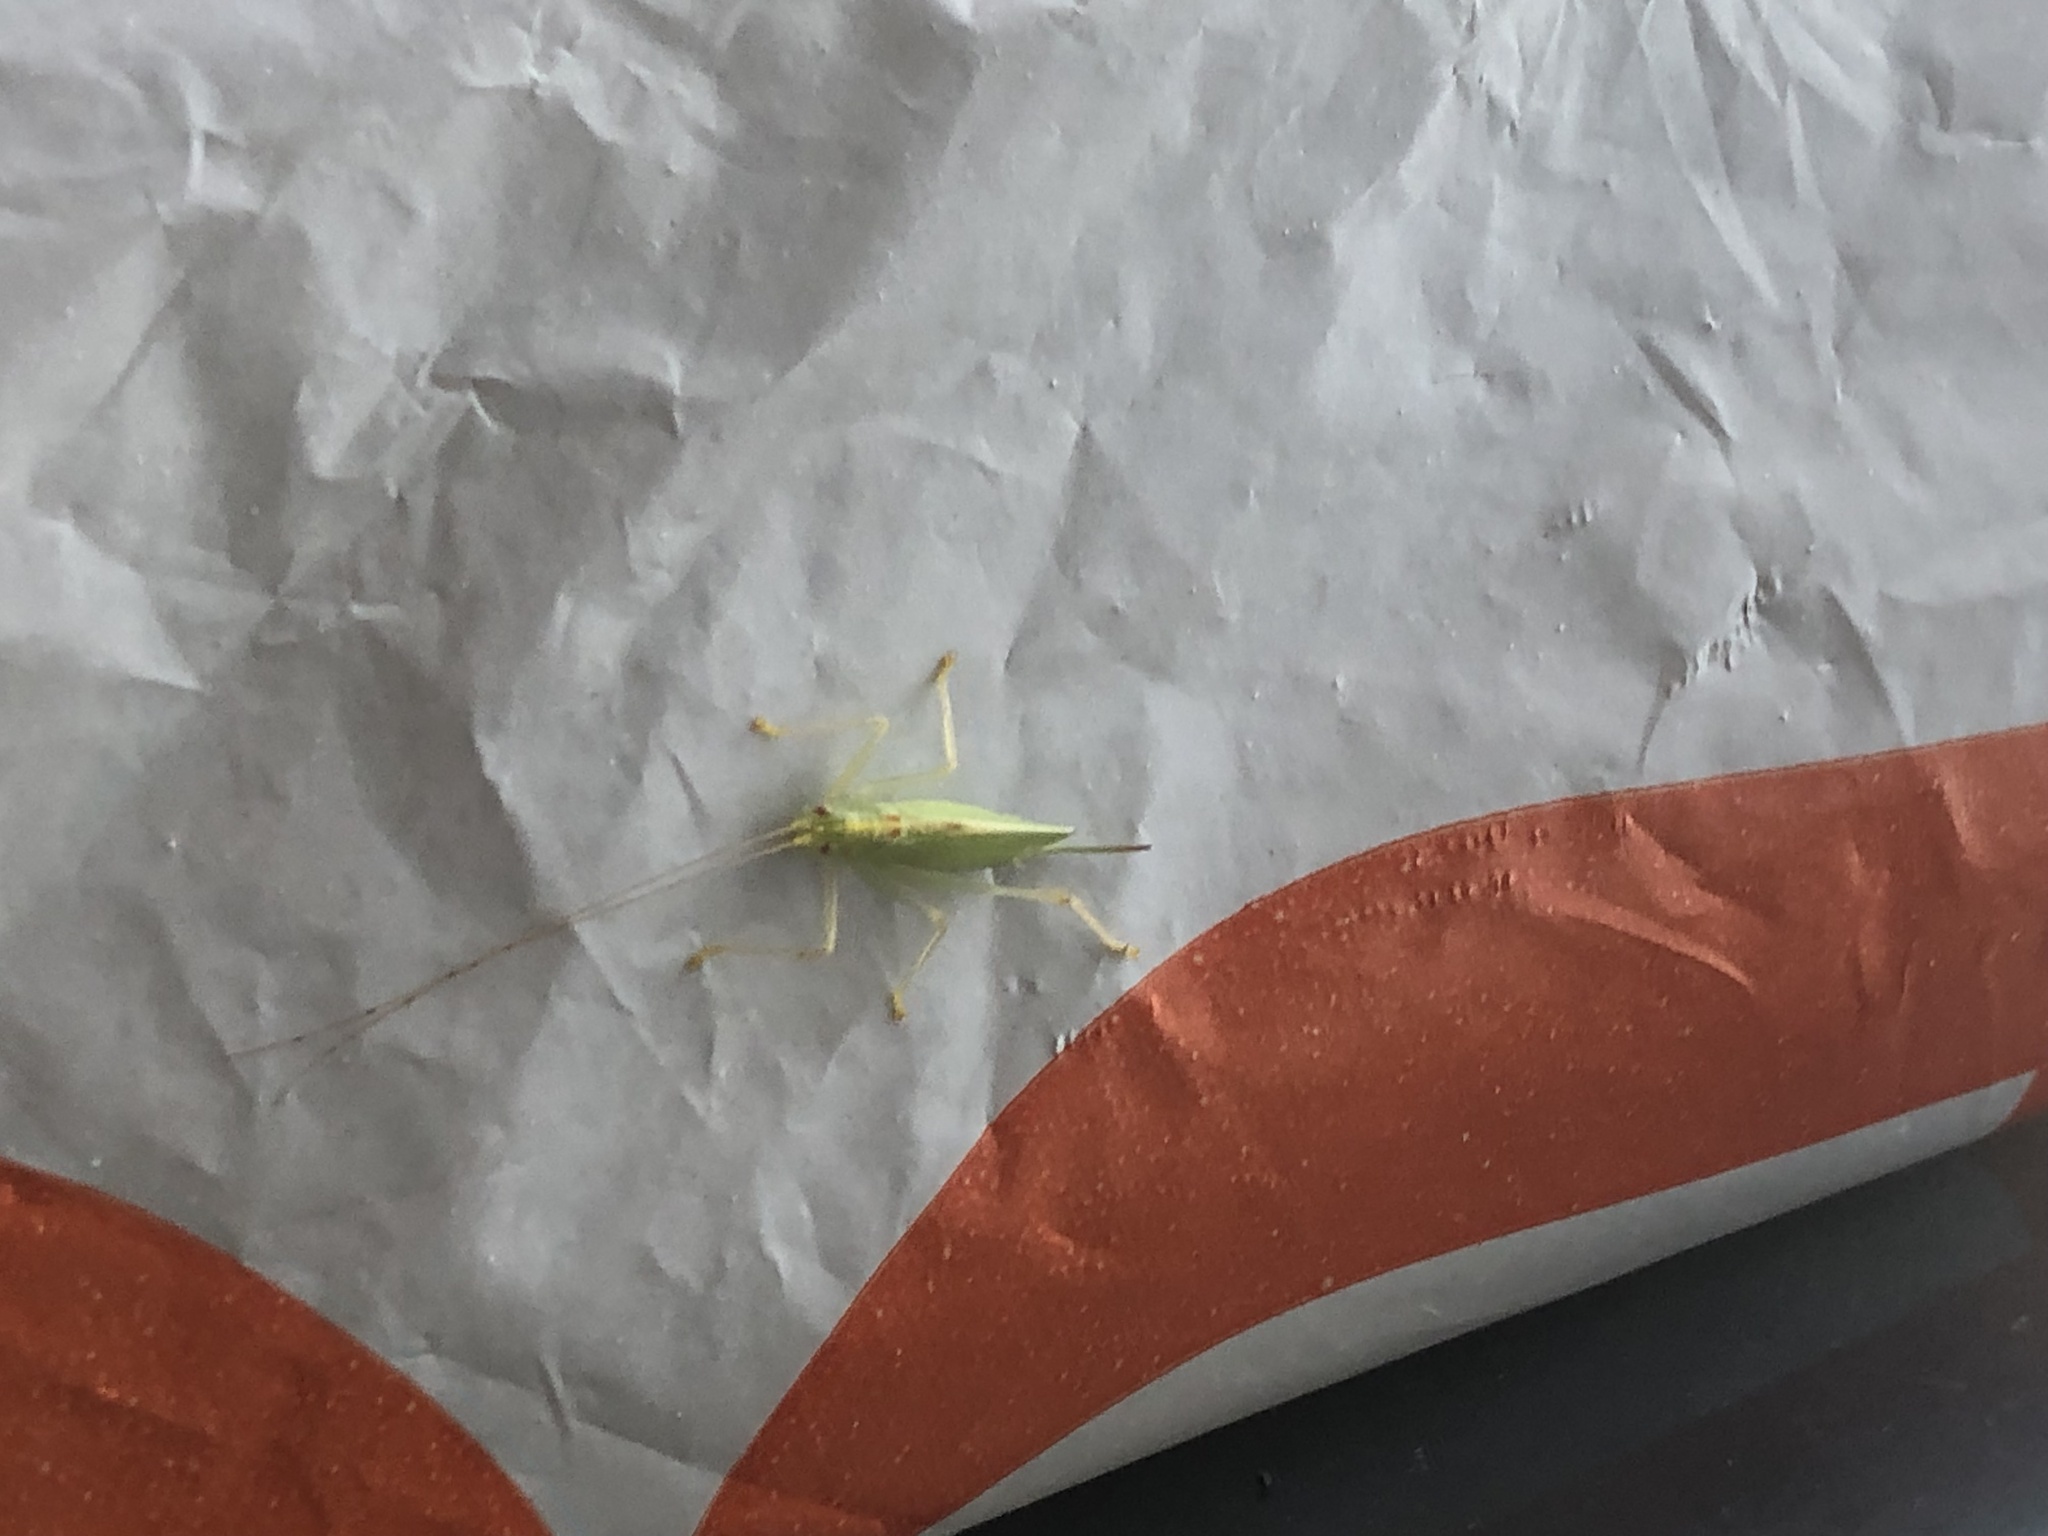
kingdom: Animalia
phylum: Arthropoda
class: Insecta
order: Orthoptera
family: Tettigoniidae
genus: Meconema
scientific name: Meconema thalassinum
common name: Oak bush-cricket
